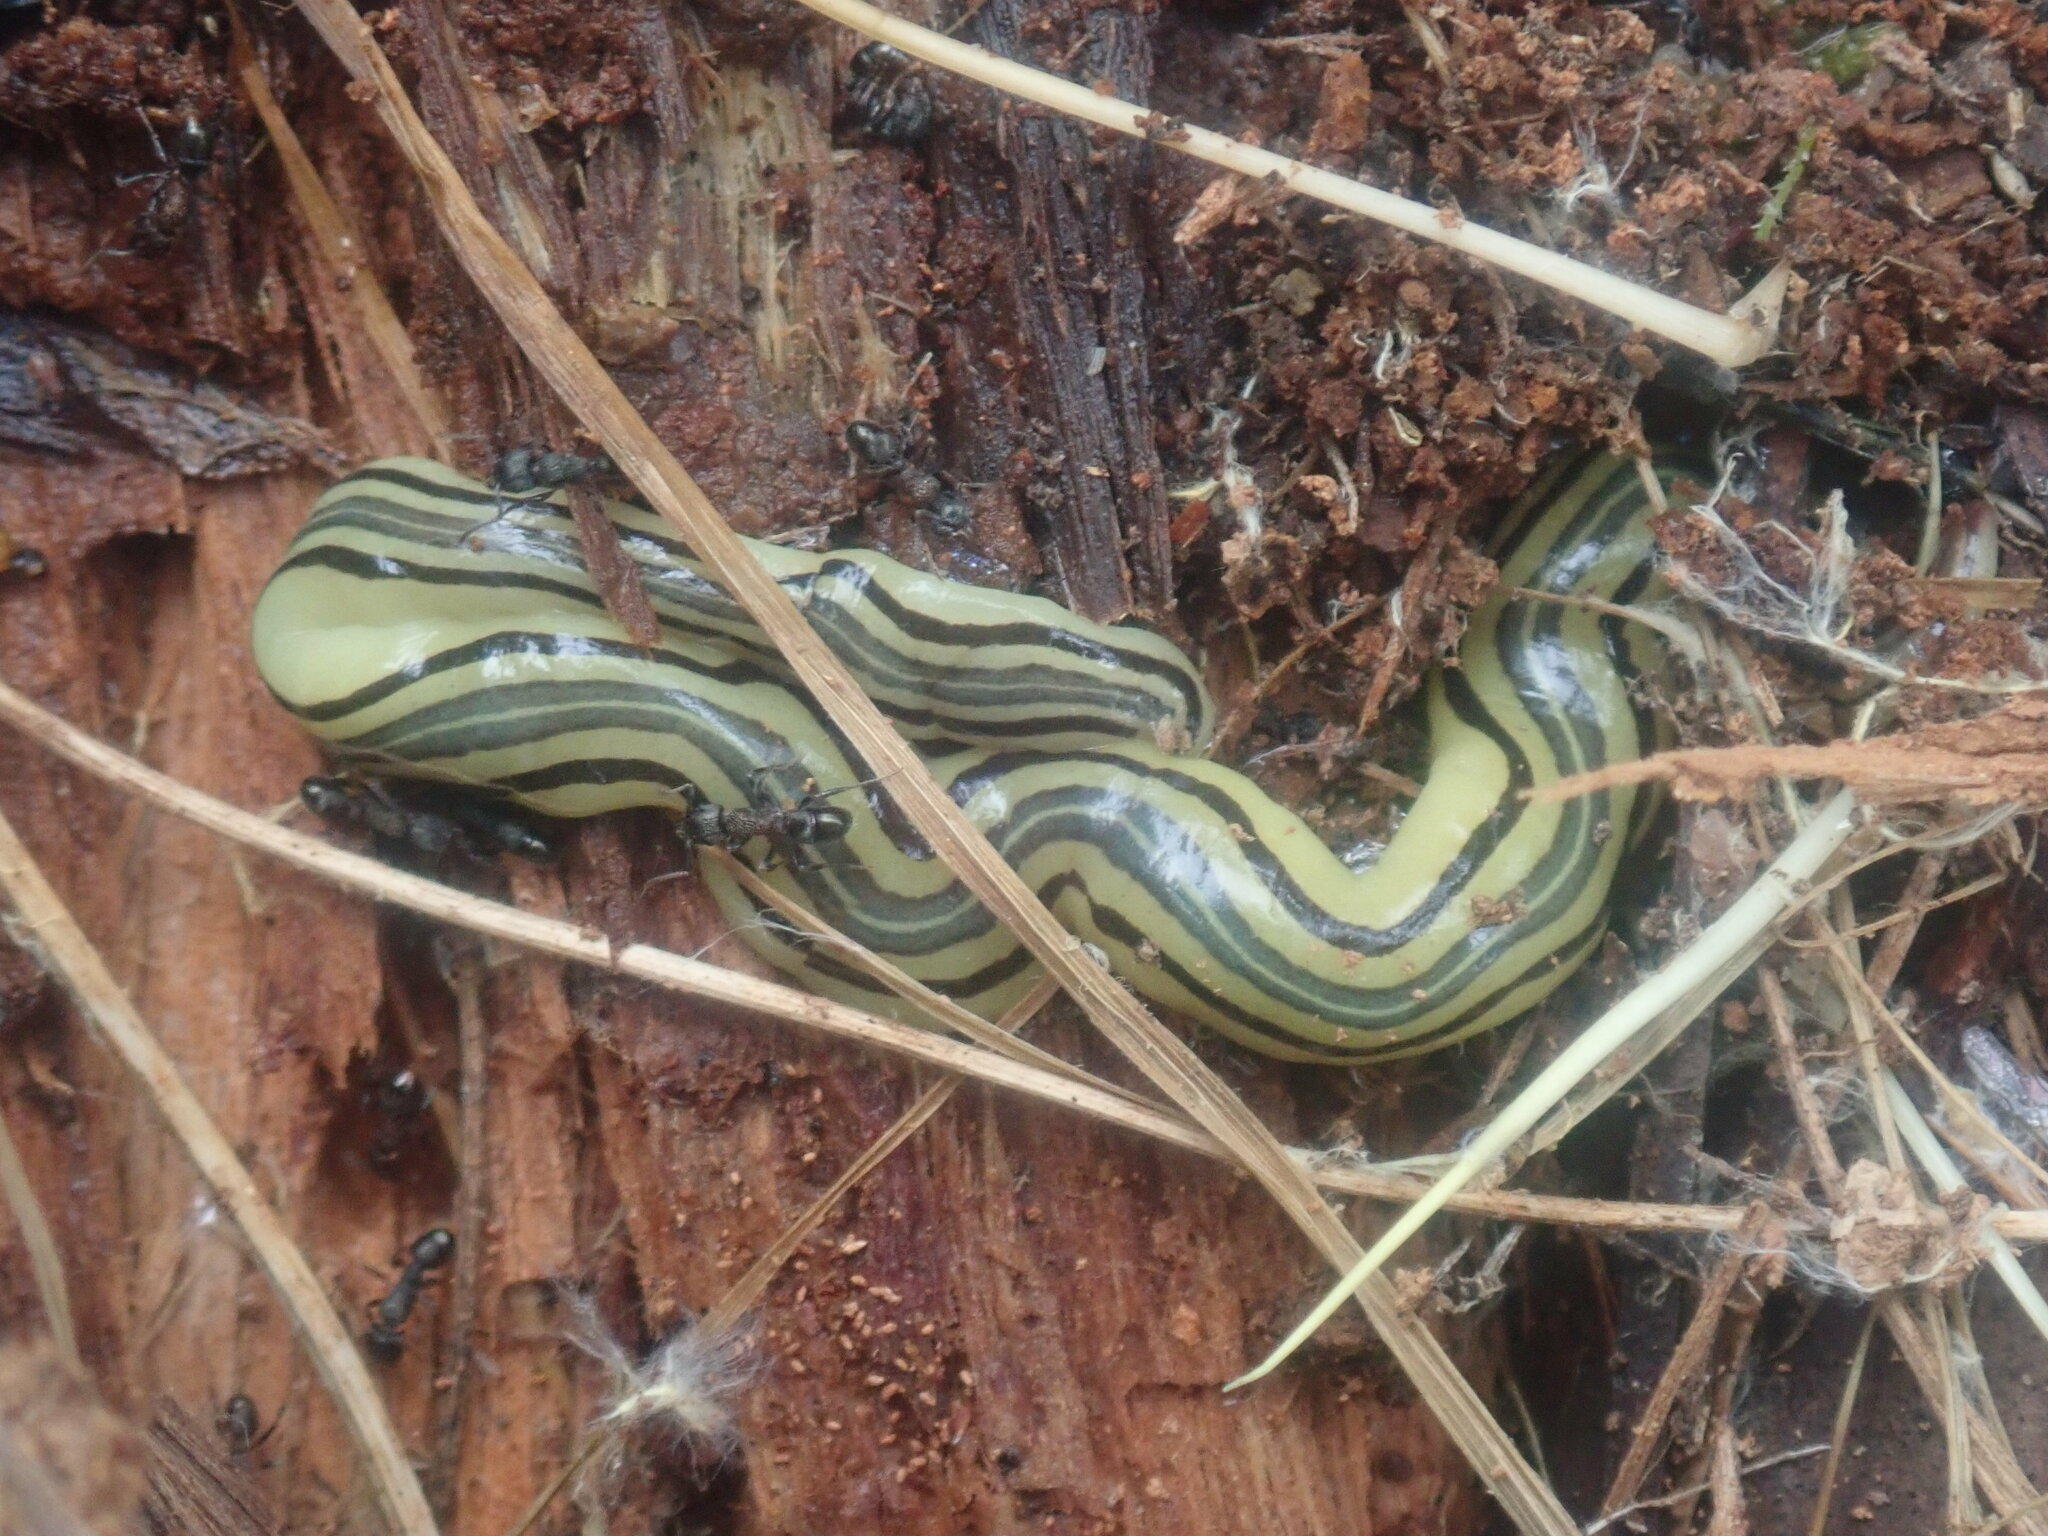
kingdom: Animalia
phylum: Platyhelminthes
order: Tricladida
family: Geoplanidae
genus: Caenoplana
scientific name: Caenoplana hoggii
